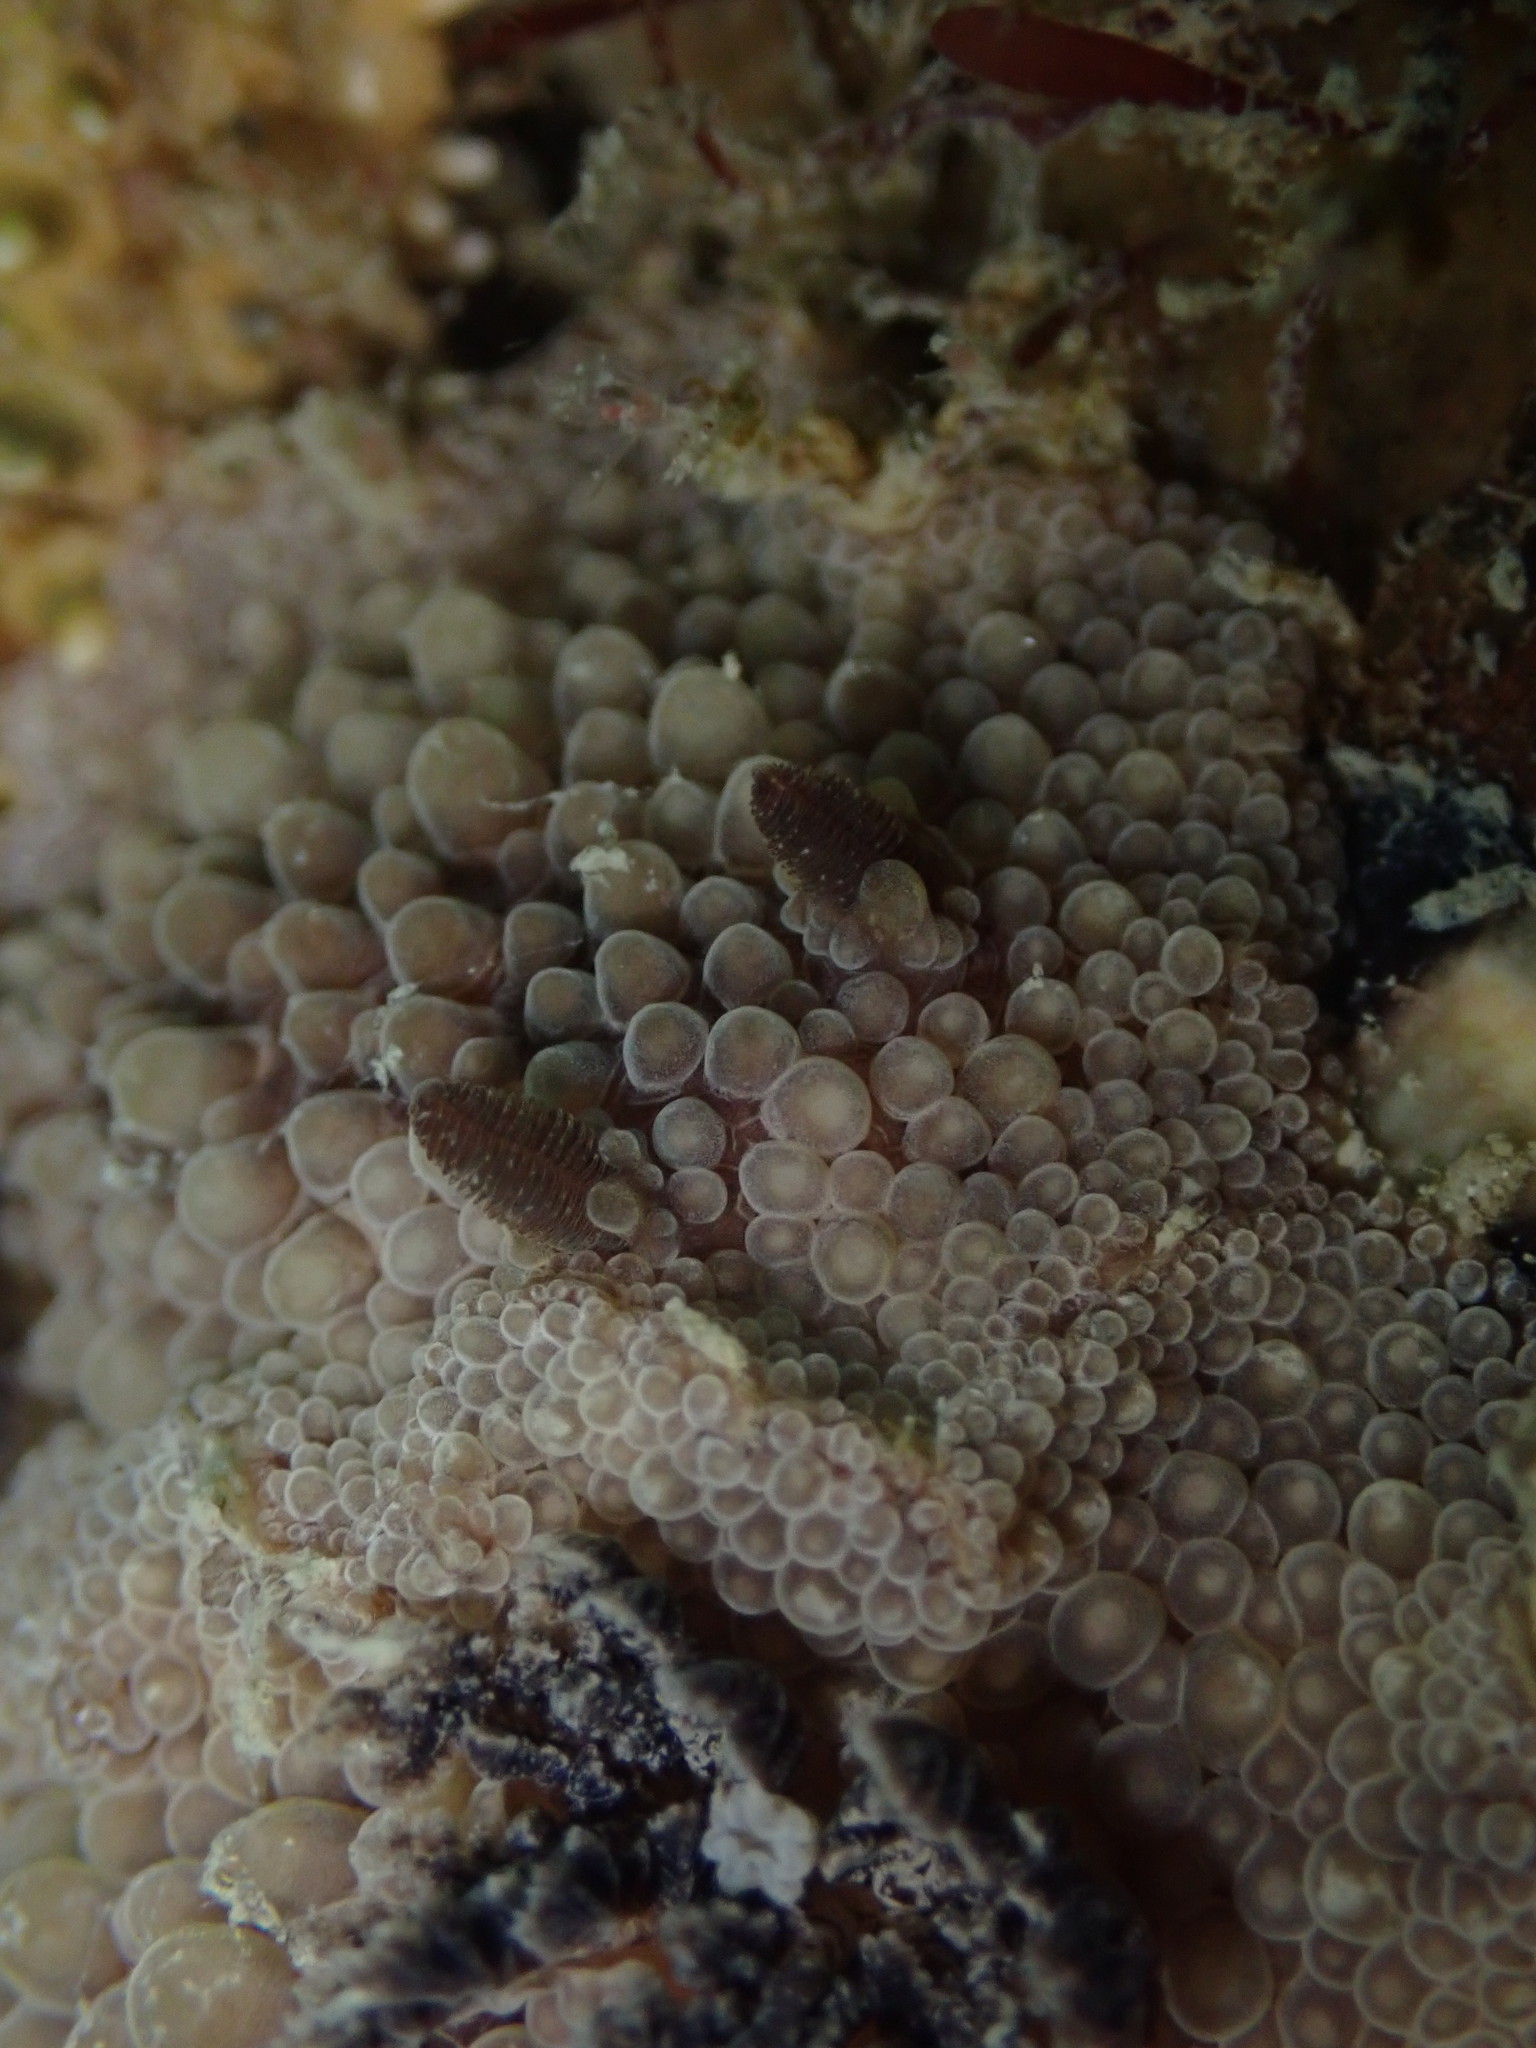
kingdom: Animalia
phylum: Mollusca
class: Gastropoda
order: Nudibranchia
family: Discodorididae
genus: Carminodoris
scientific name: Carminodoris nodulosa
